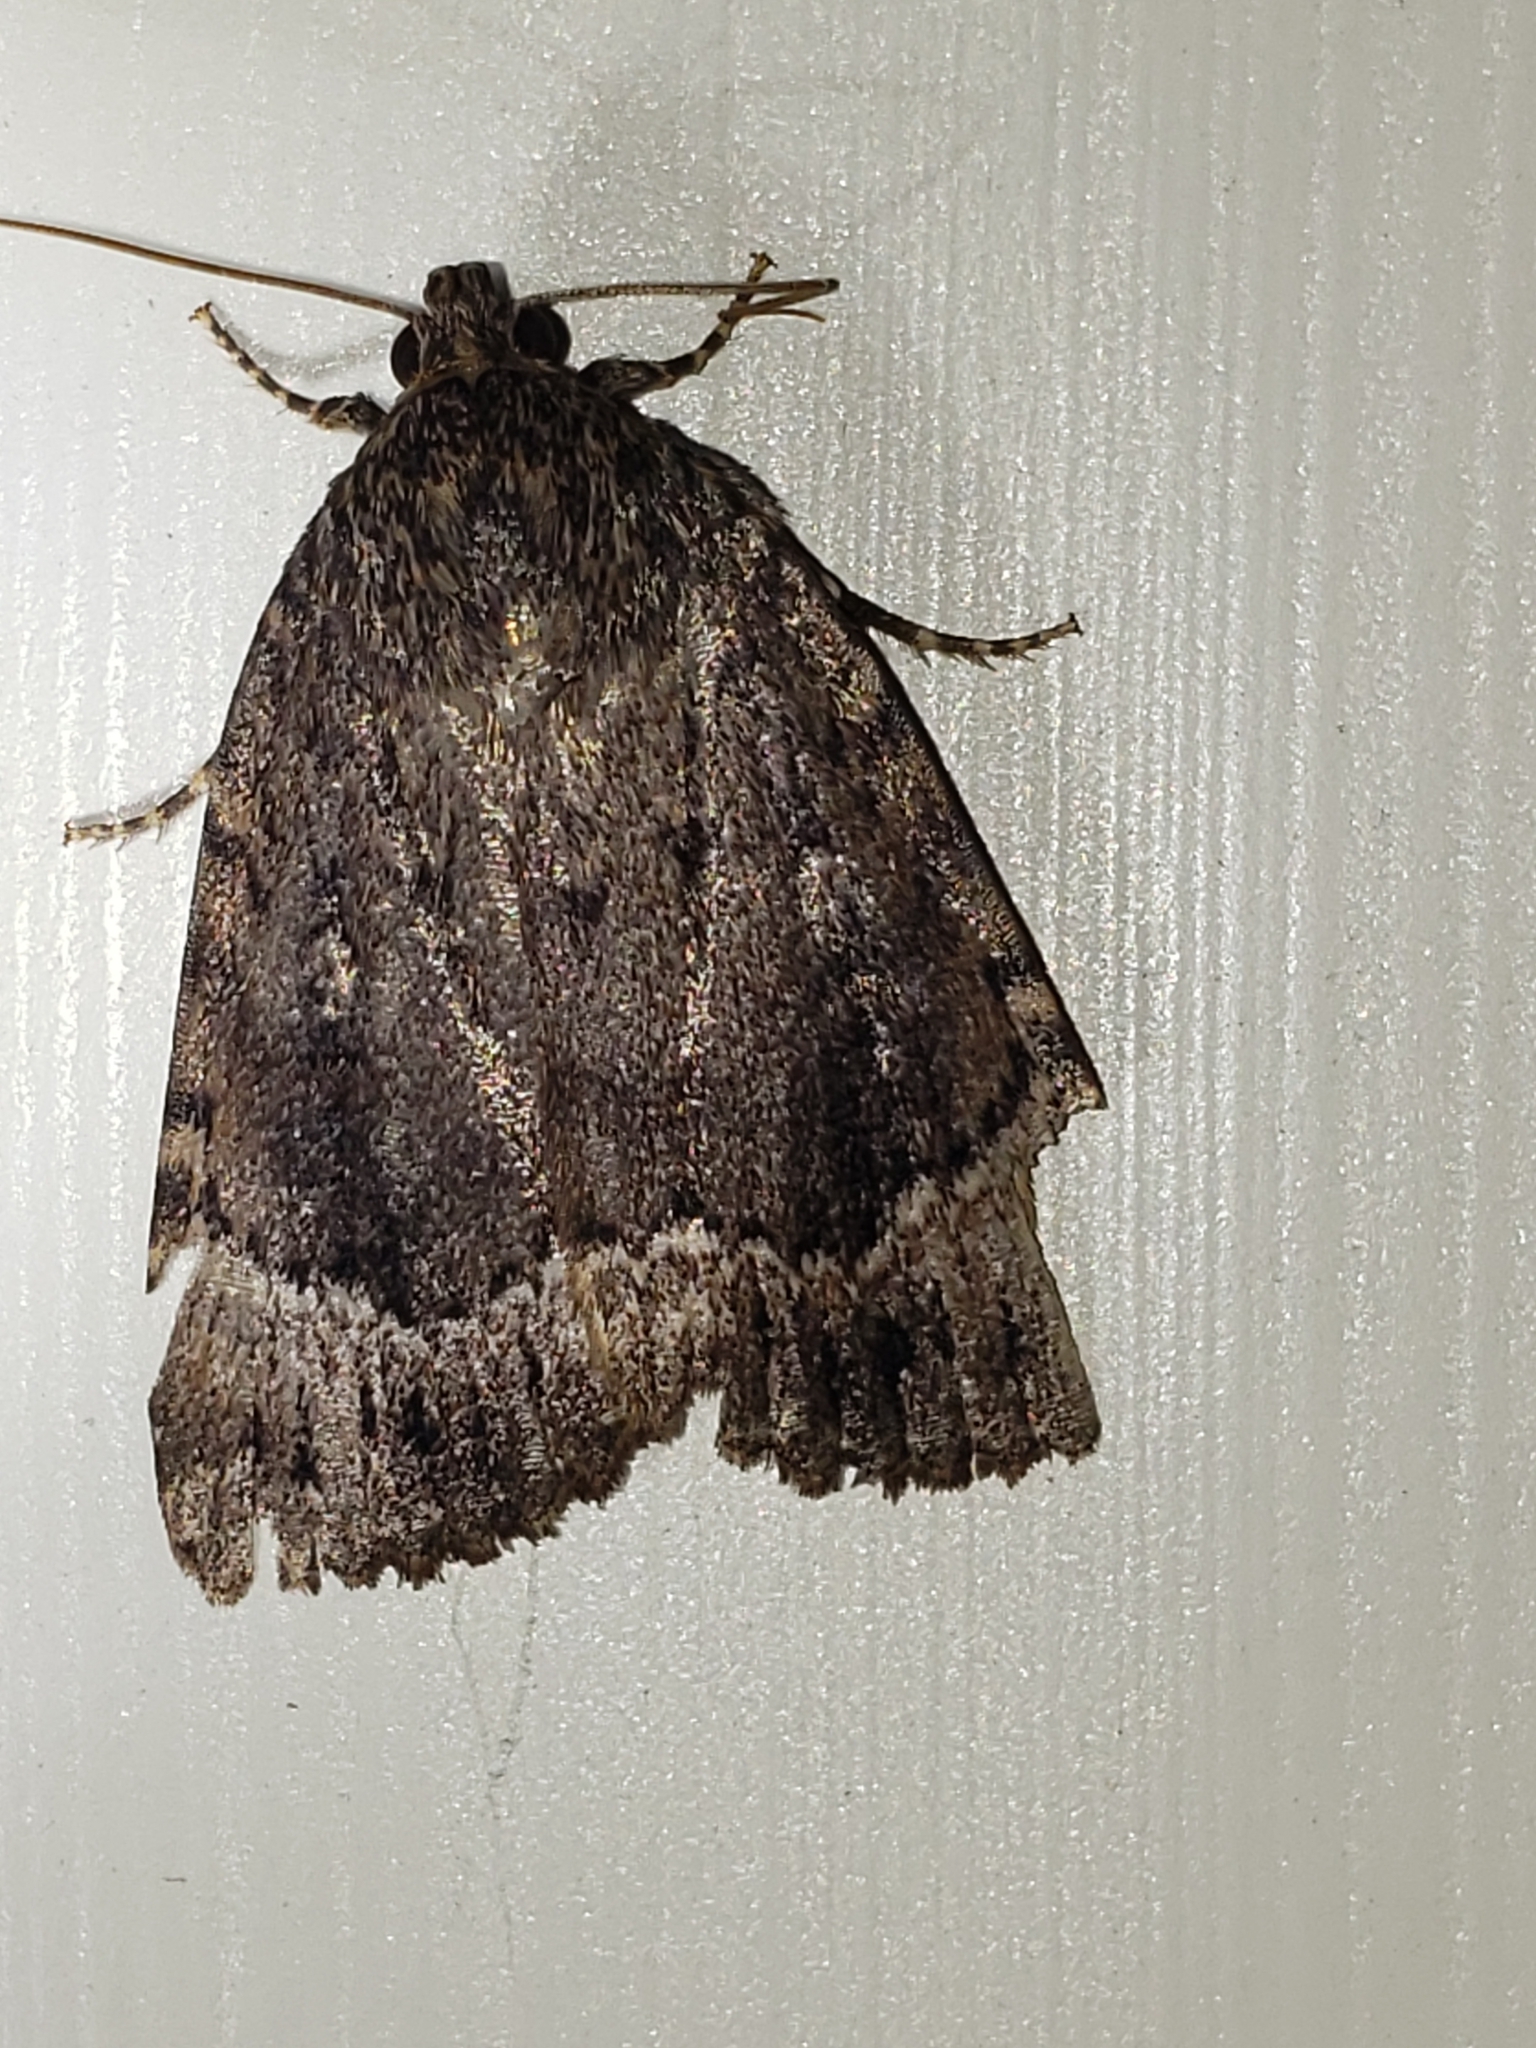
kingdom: Animalia
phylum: Arthropoda
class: Insecta
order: Lepidoptera
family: Noctuidae
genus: Amphipyra
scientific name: Amphipyra pyramidoides
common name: American copper underwing
